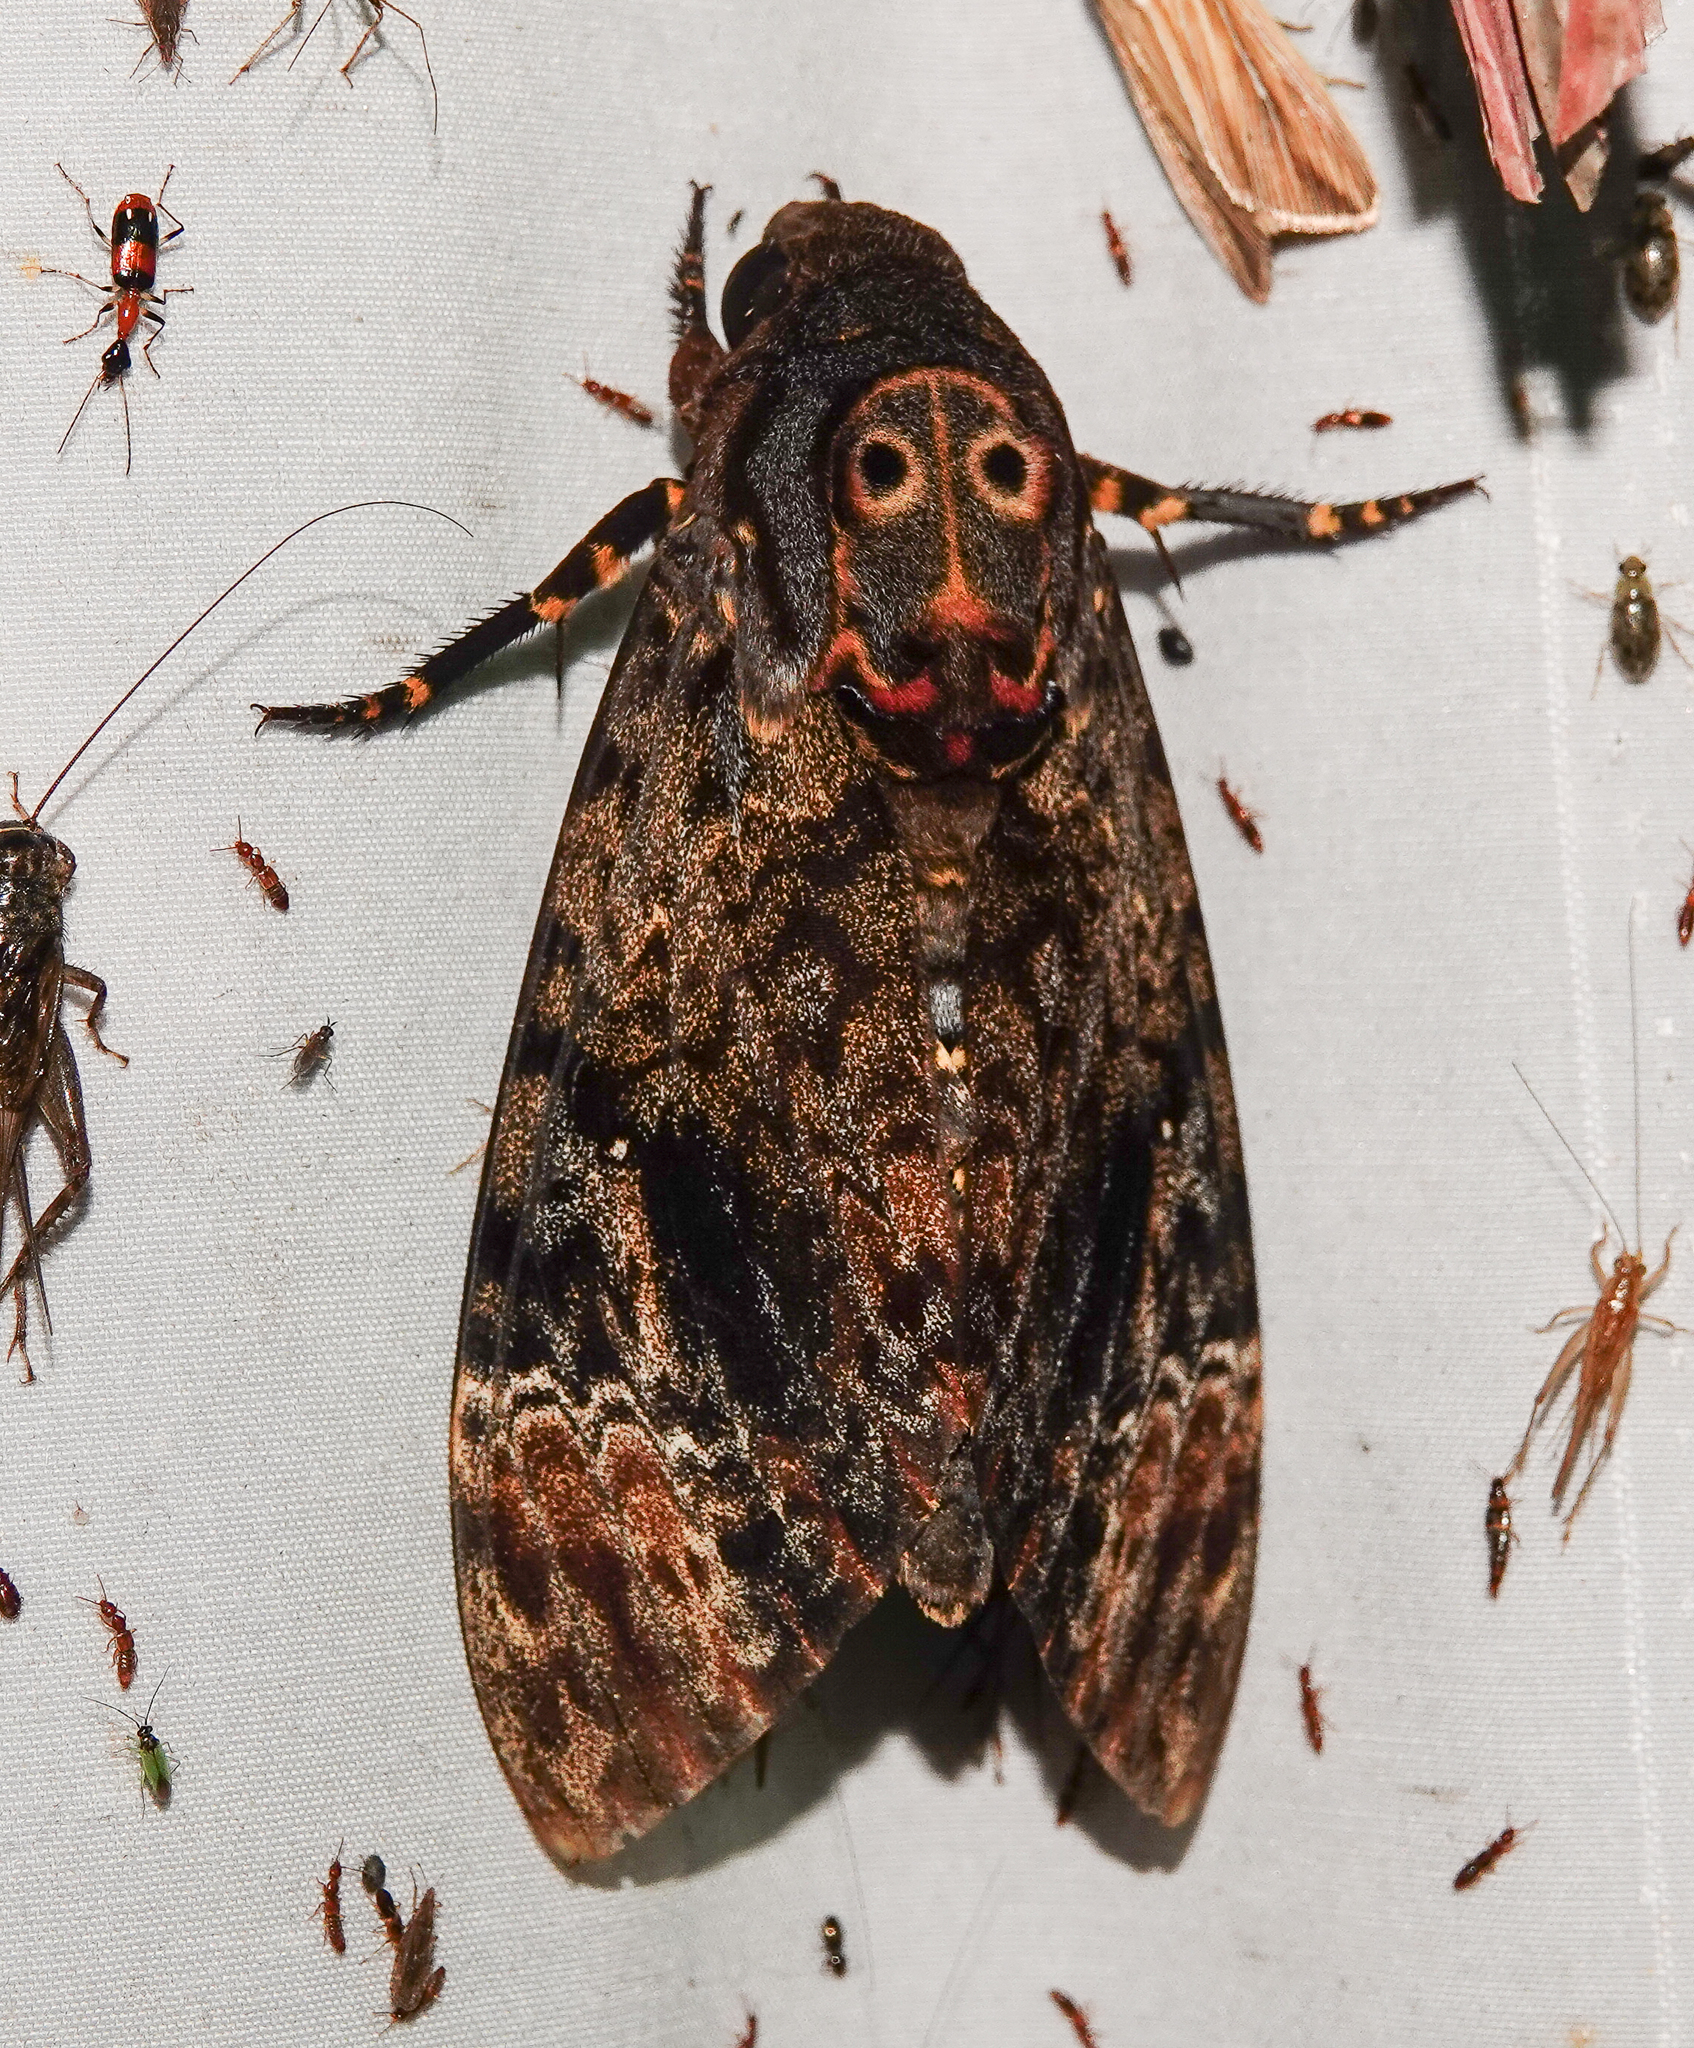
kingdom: Animalia
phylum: Arthropoda
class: Insecta
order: Lepidoptera
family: Sphingidae
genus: Acherontia
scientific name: Acherontia lachesis
